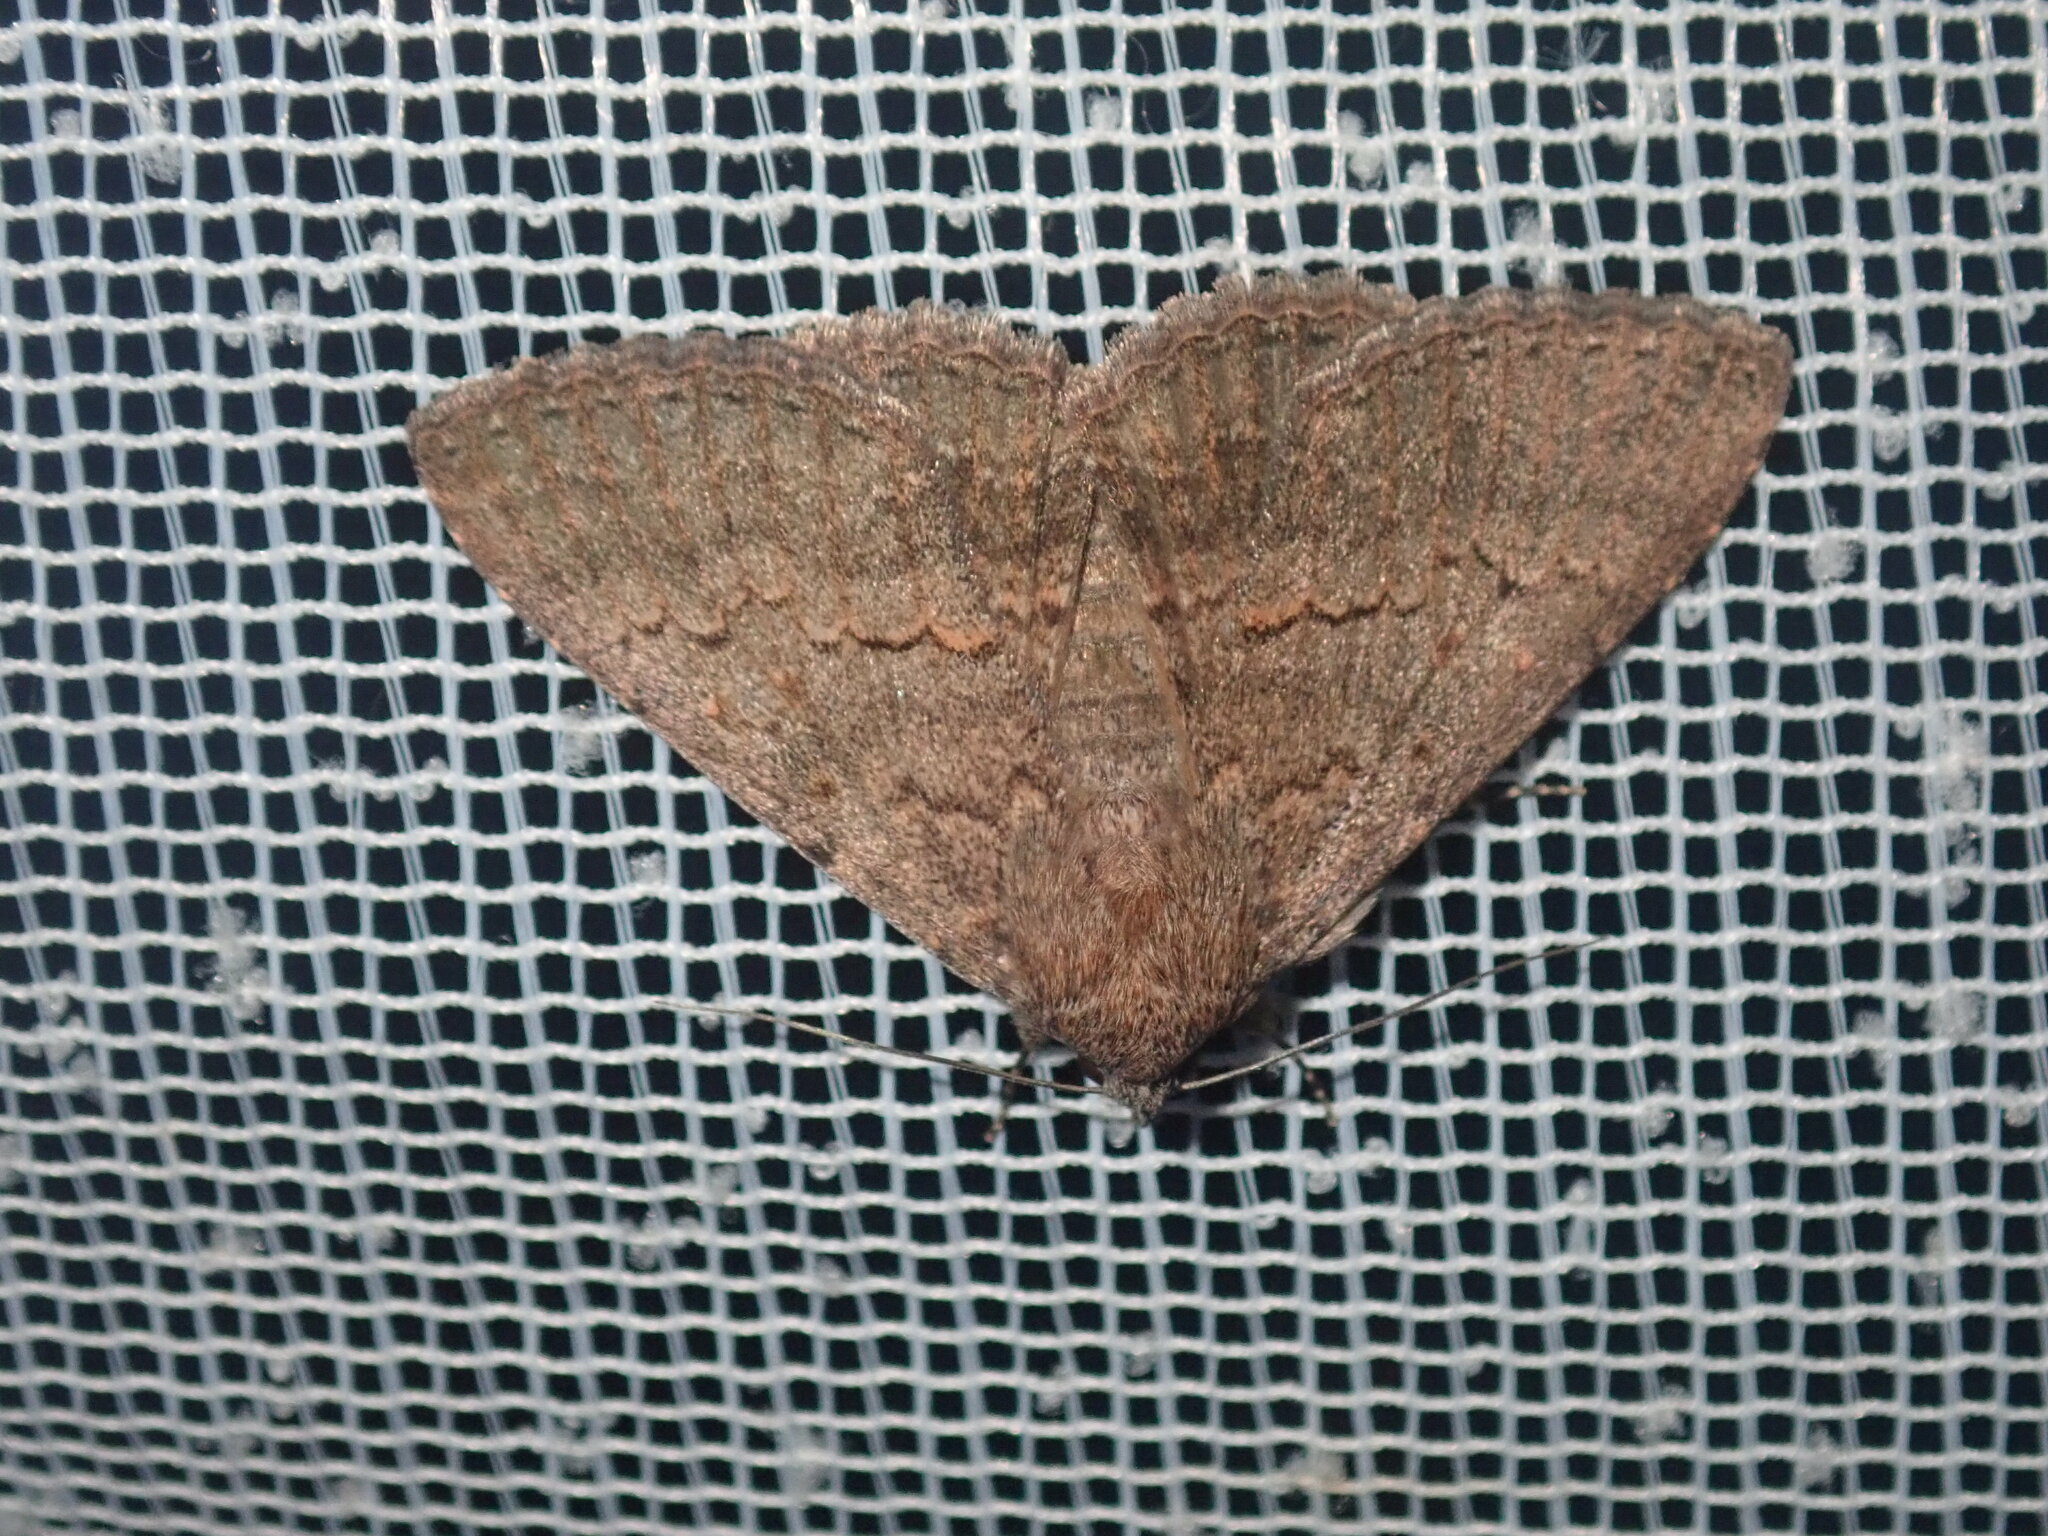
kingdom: Animalia
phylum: Arthropoda
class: Insecta
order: Lepidoptera
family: Erebidae
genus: Eudesmeola
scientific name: Eudesmeola lawsoni
